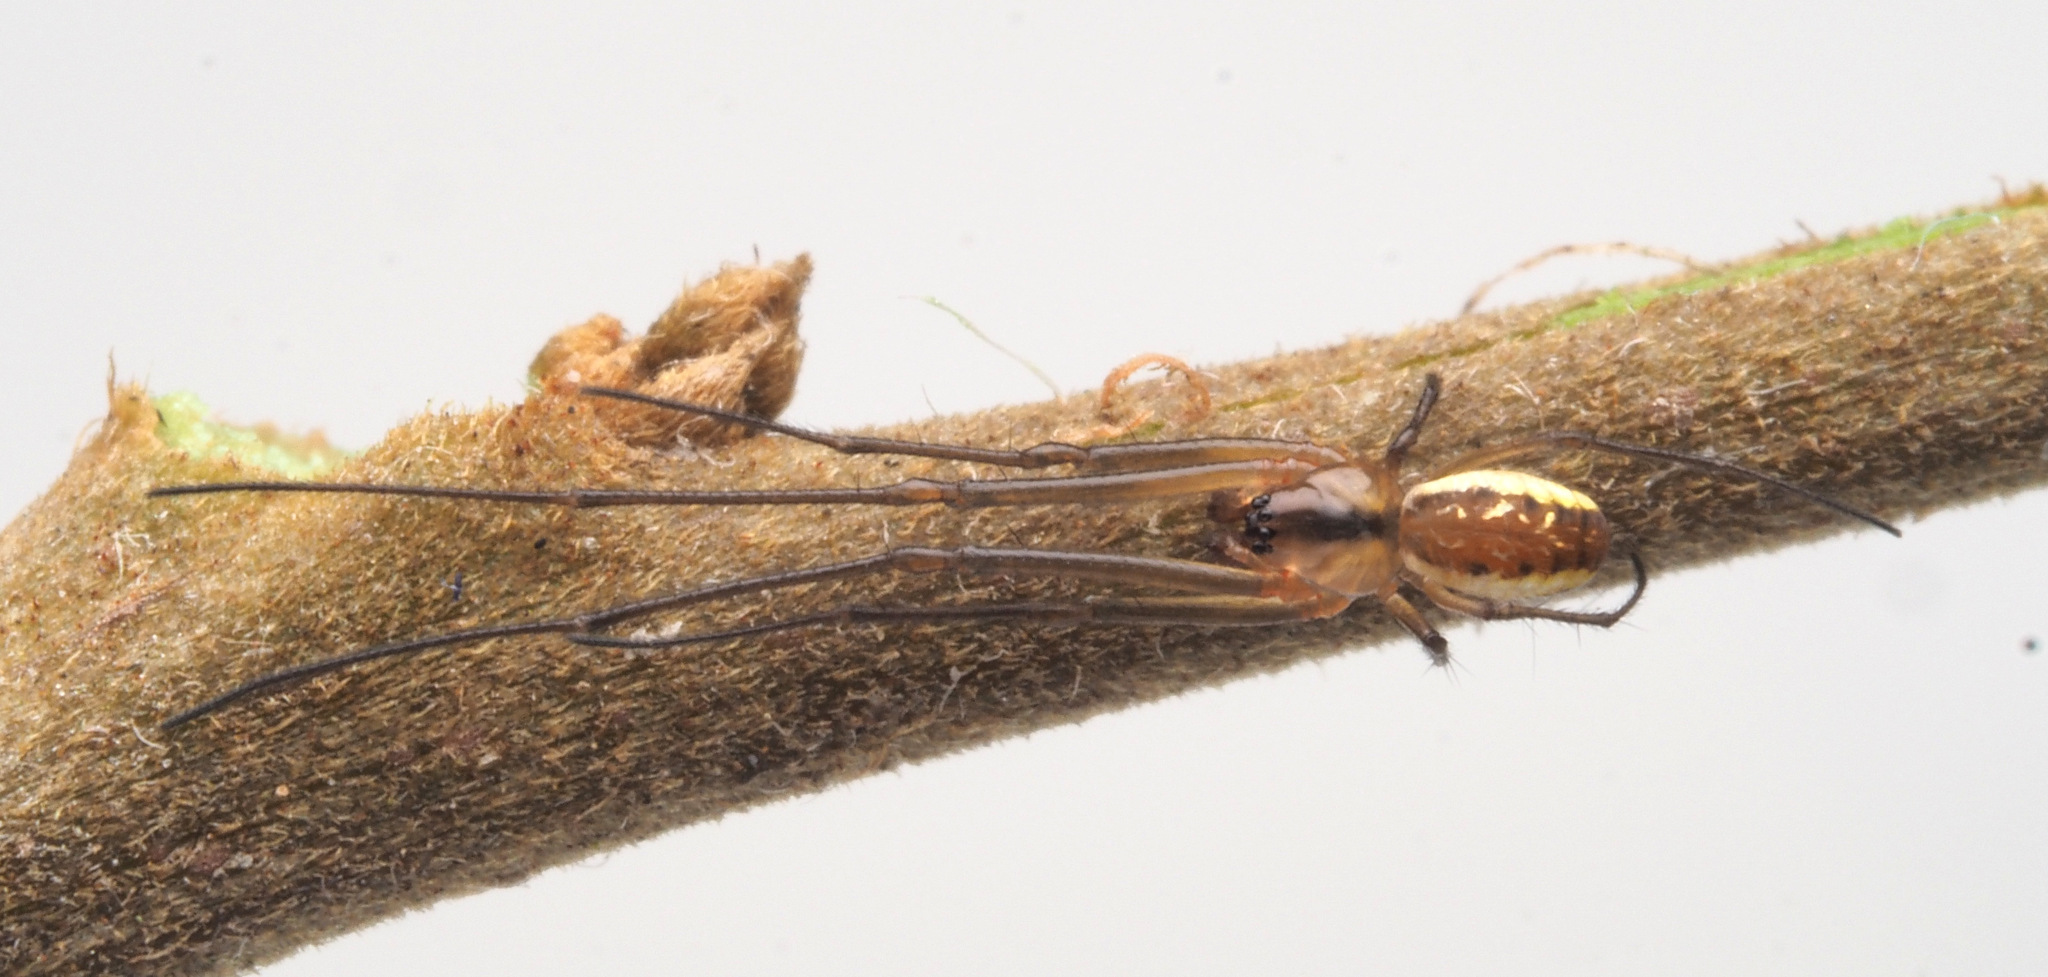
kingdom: Animalia
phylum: Arthropoda
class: Arachnida
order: Araneae
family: Tetragnathidae
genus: Nanometa
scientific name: Nanometa trivittata
